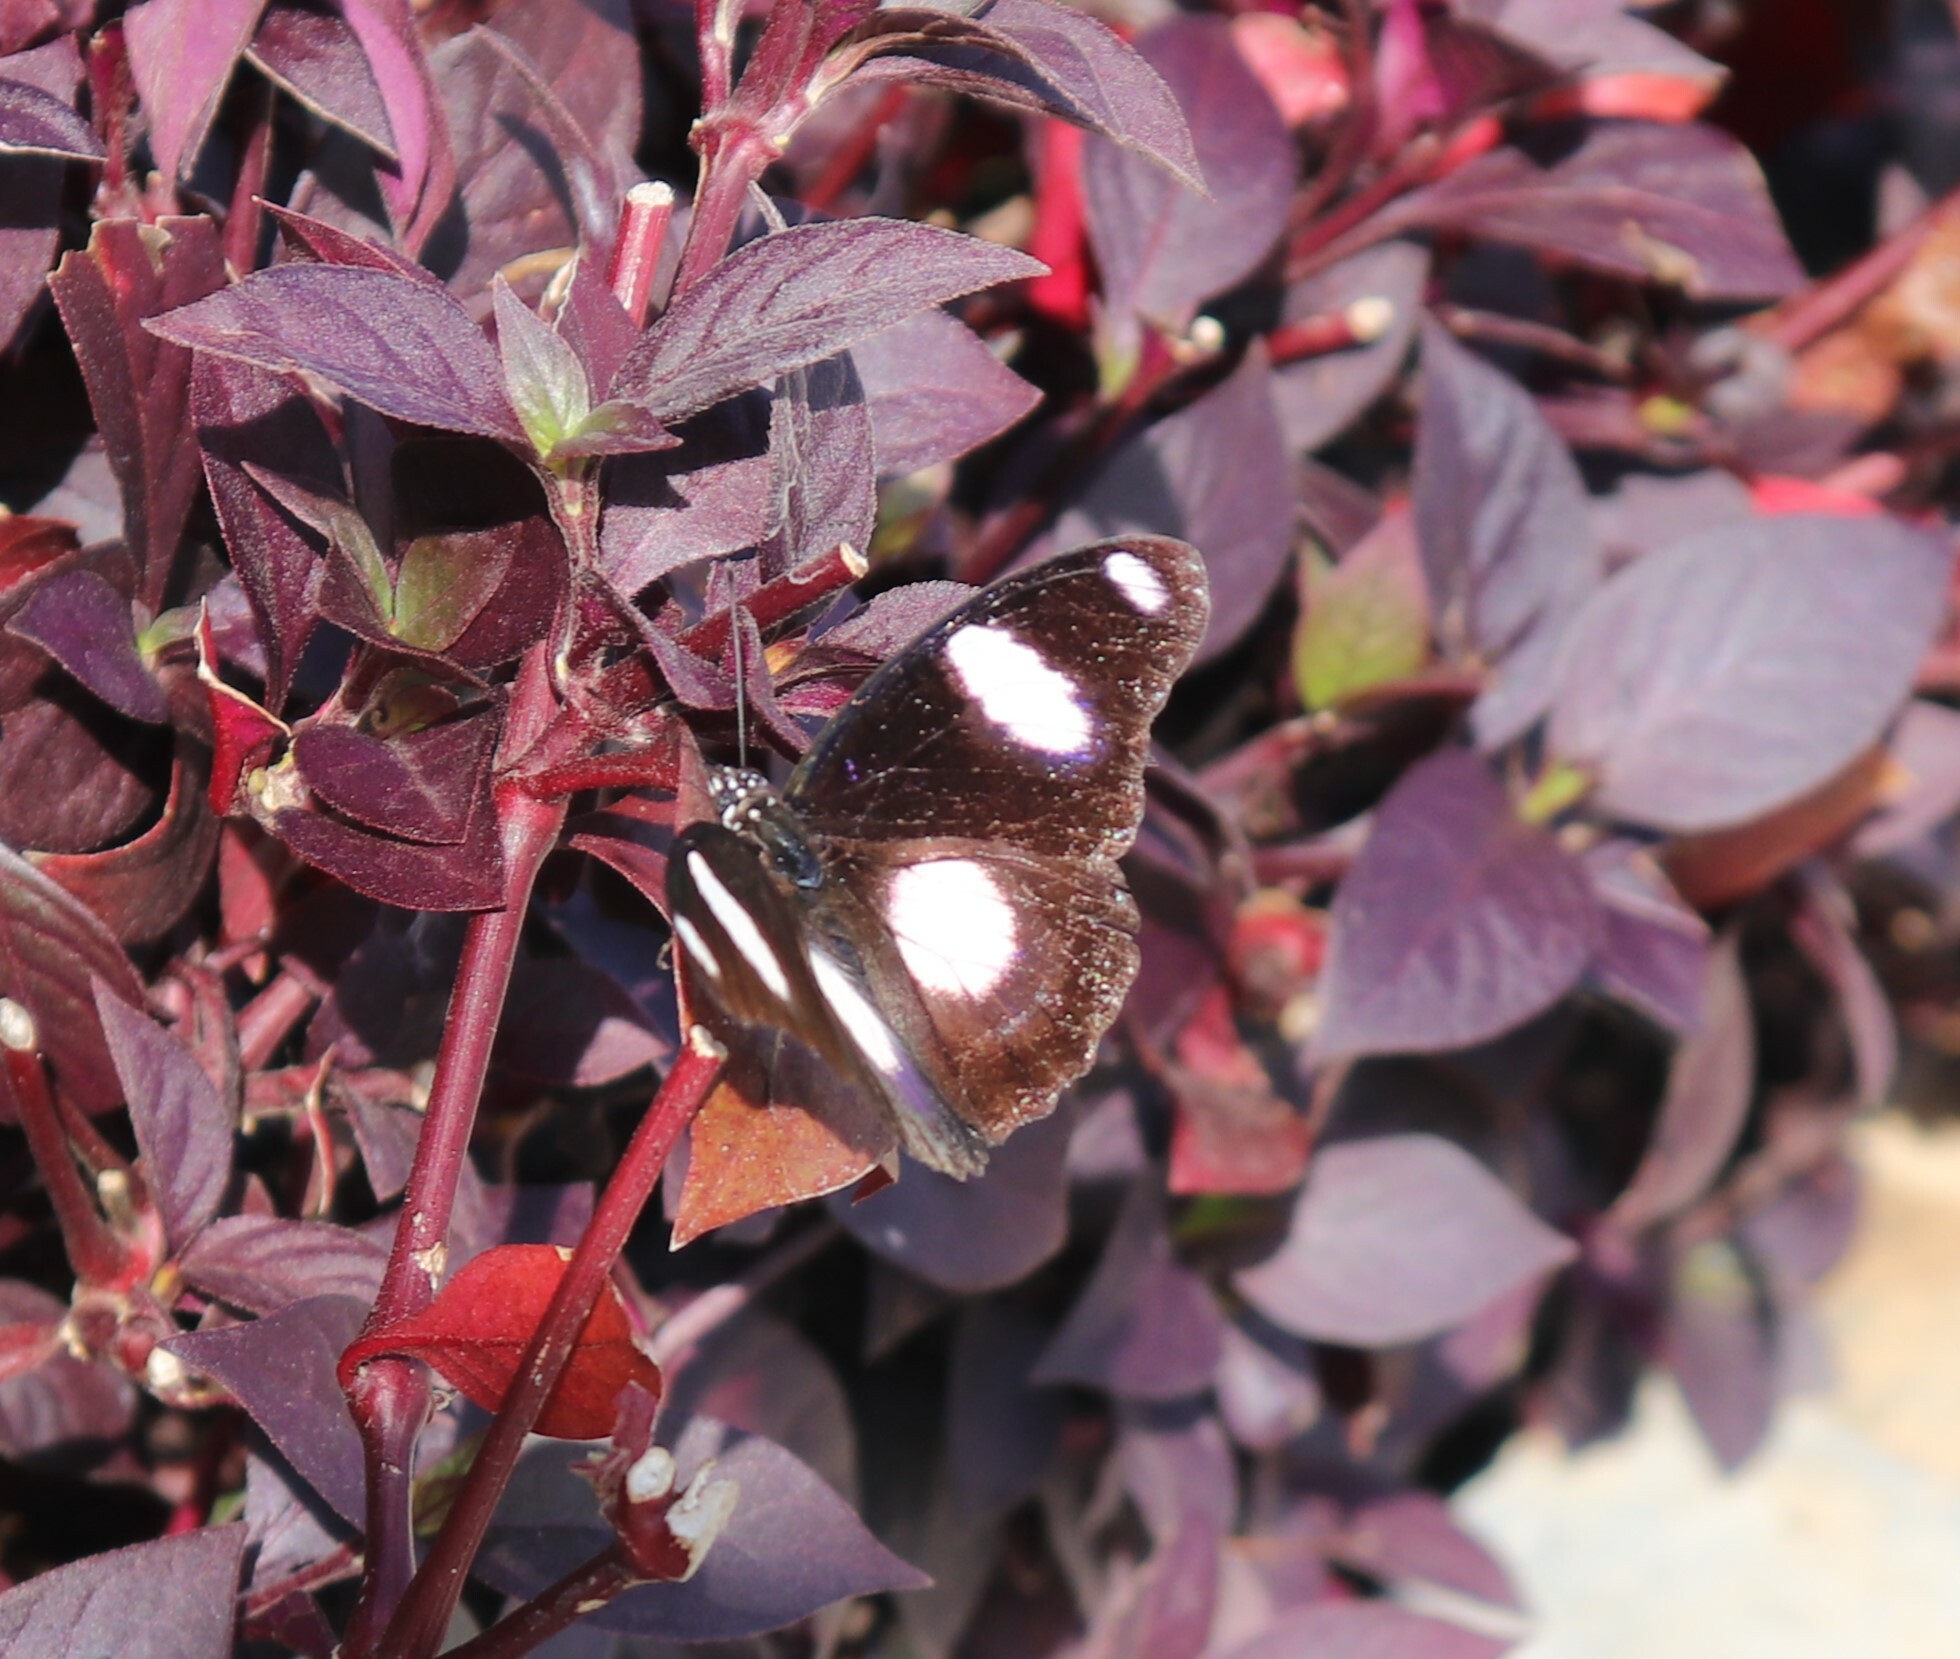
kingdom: Animalia
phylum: Arthropoda
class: Insecta
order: Lepidoptera
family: Nymphalidae
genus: Hypolimnas
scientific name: Hypolimnas misippus
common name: False plain tiger
